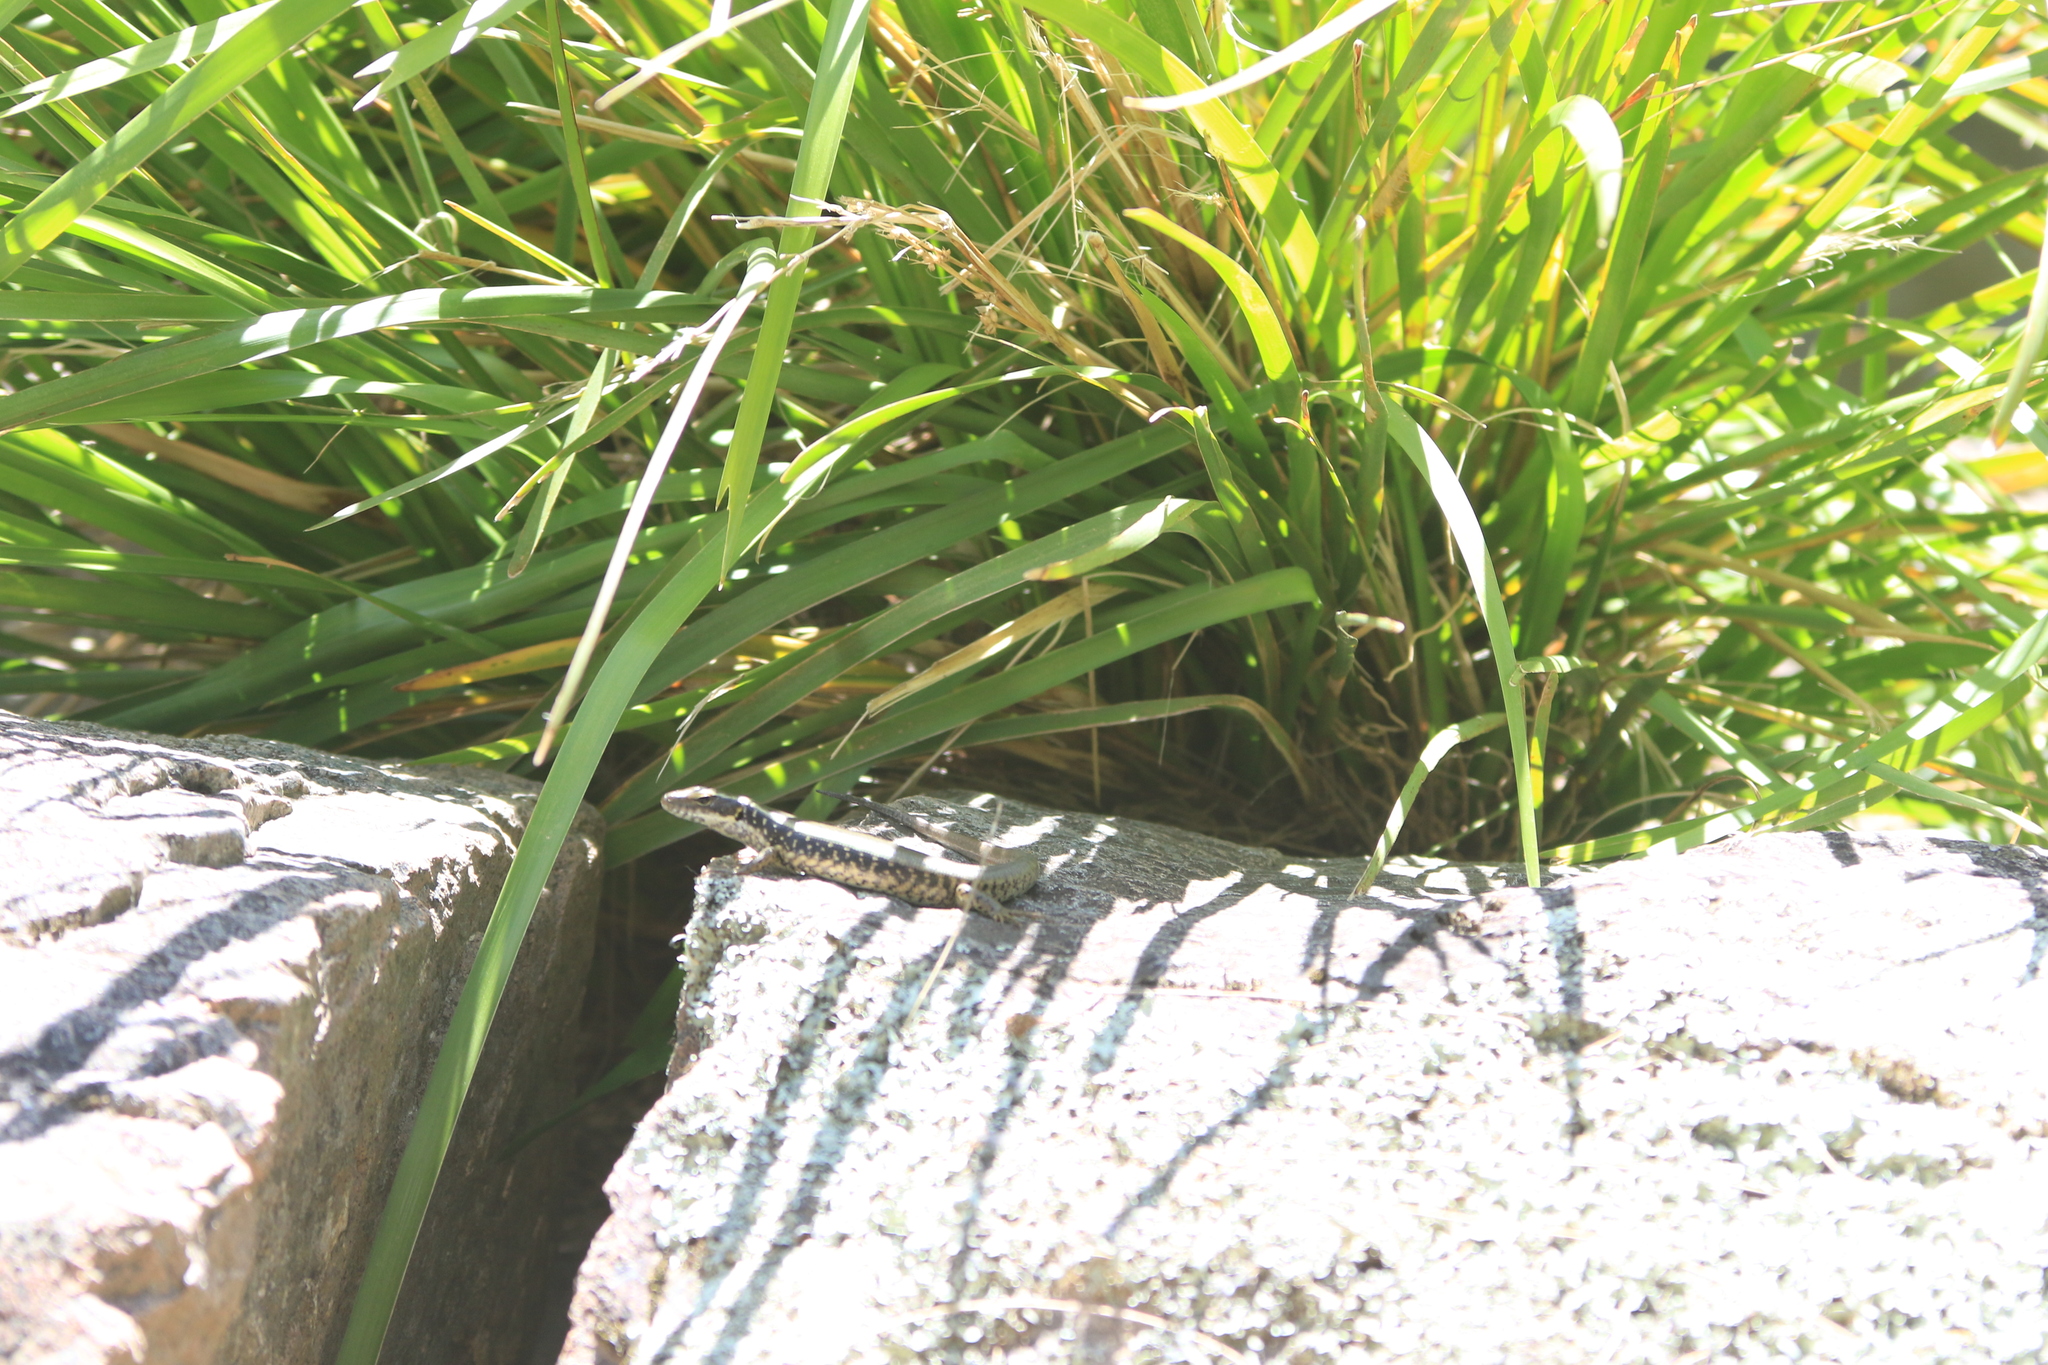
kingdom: Animalia
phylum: Chordata
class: Squamata
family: Scincidae
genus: Eulamprus
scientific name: Eulamprus quoyii
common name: Eastern water skink
